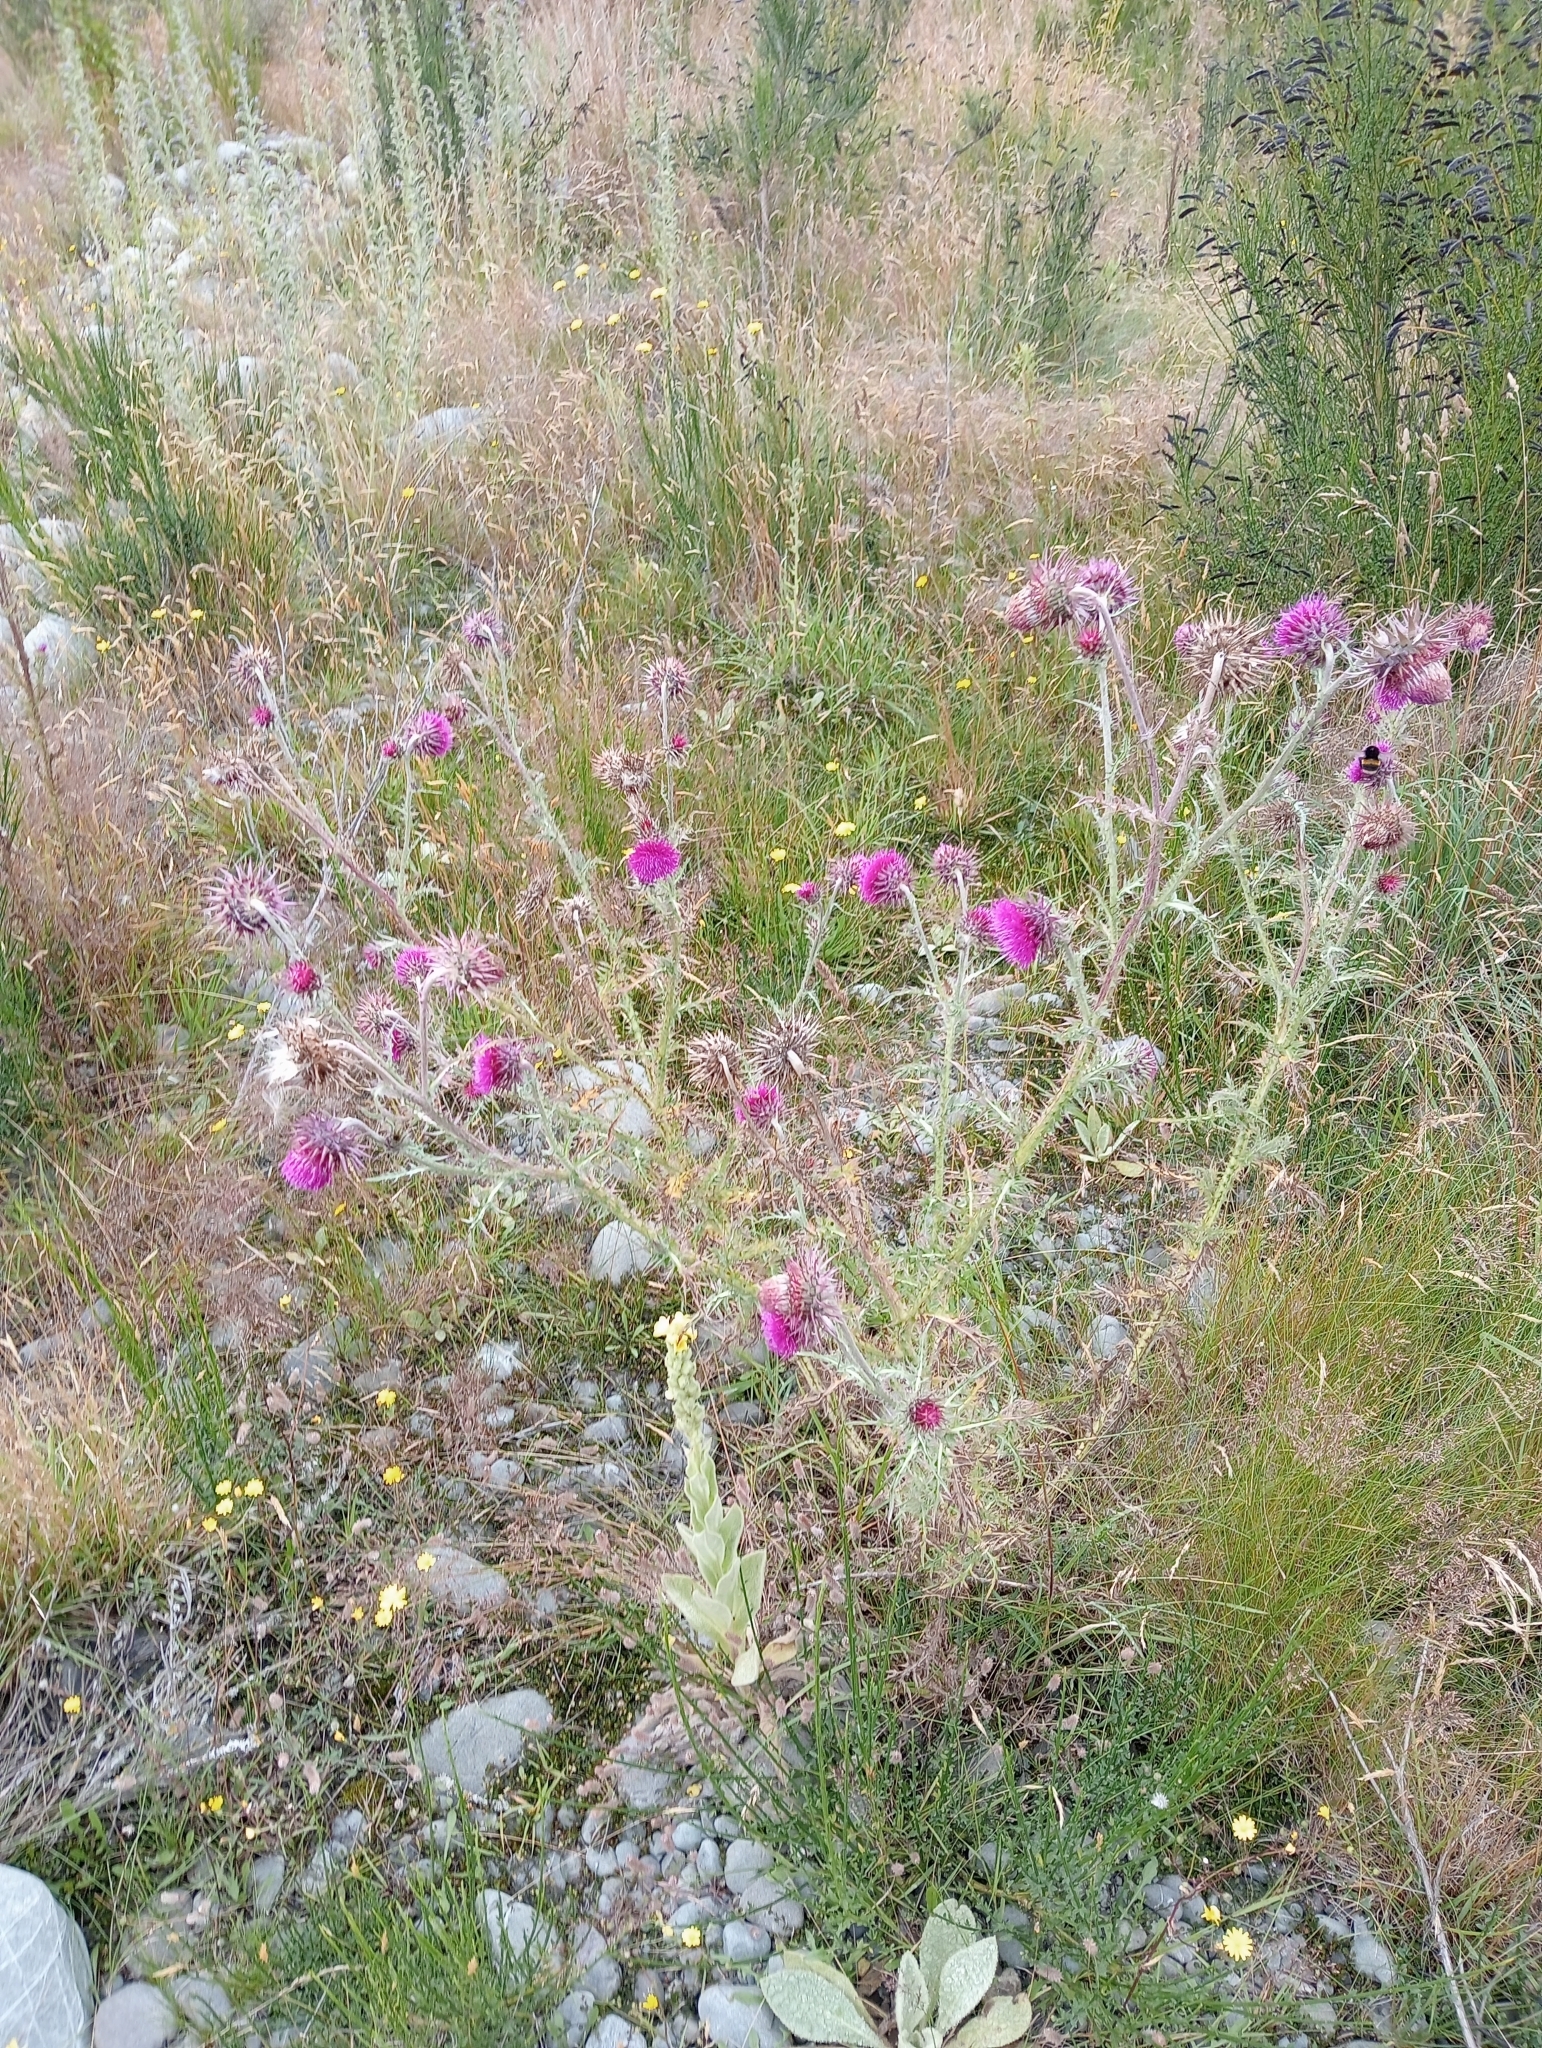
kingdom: Plantae
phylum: Tracheophyta
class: Magnoliopsida
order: Asterales
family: Asteraceae
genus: Carduus
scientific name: Carduus nutans
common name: Musk thistle
